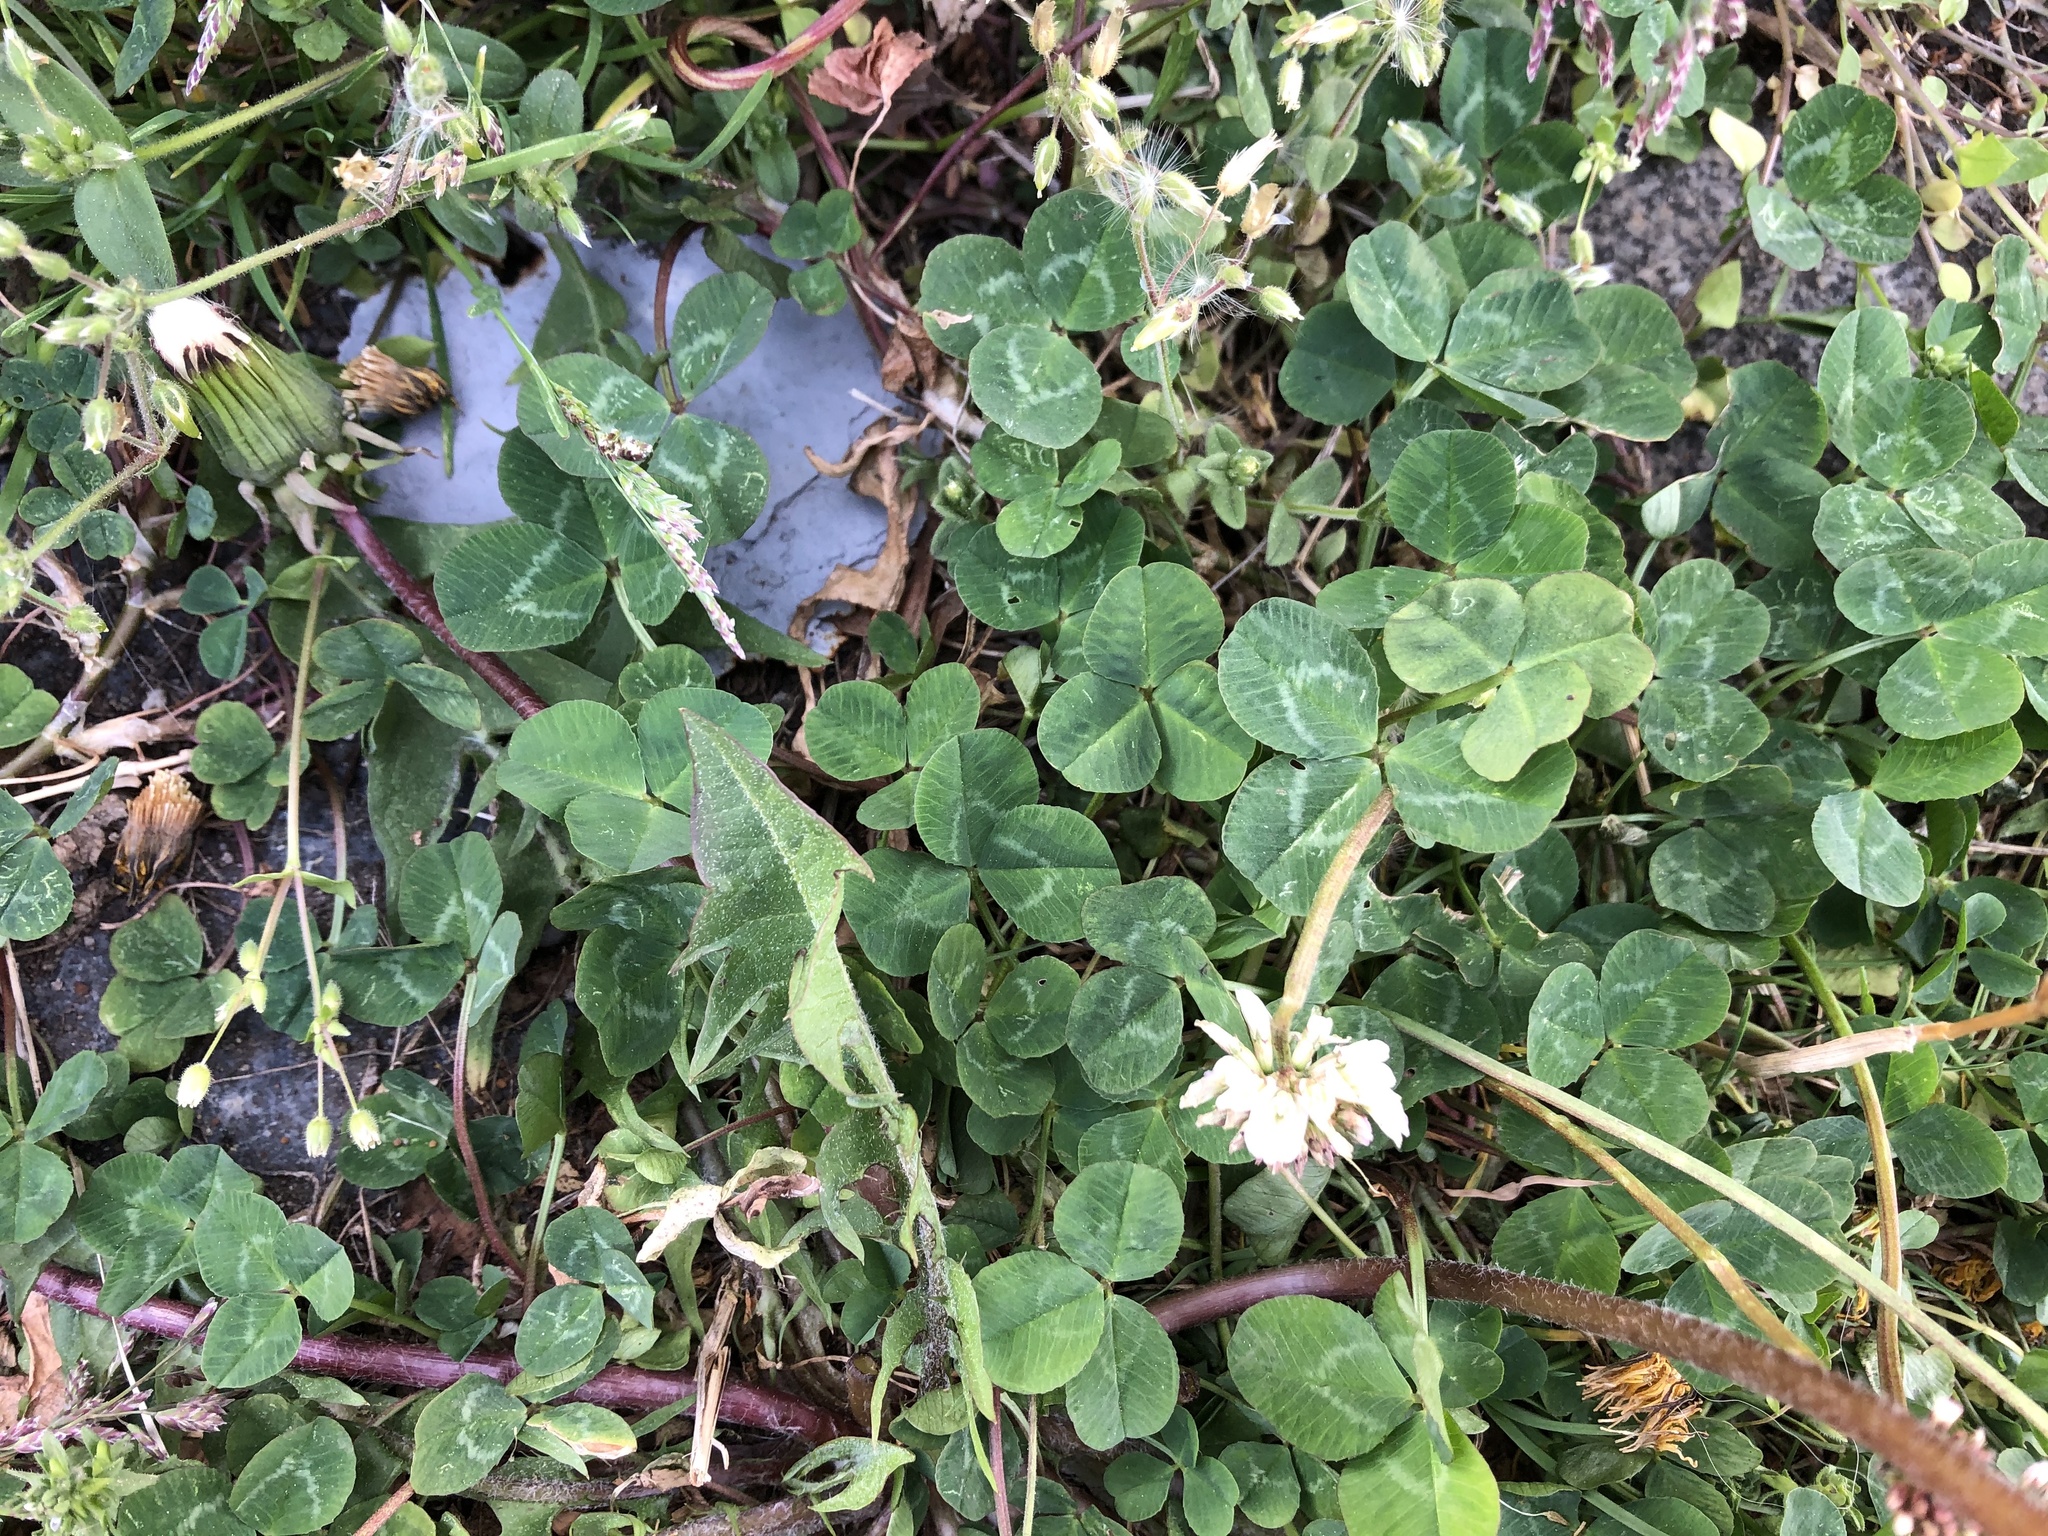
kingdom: Plantae
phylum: Tracheophyta
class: Magnoliopsida
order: Fabales
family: Fabaceae
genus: Trifolium
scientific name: Trifolium repens
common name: White clover
